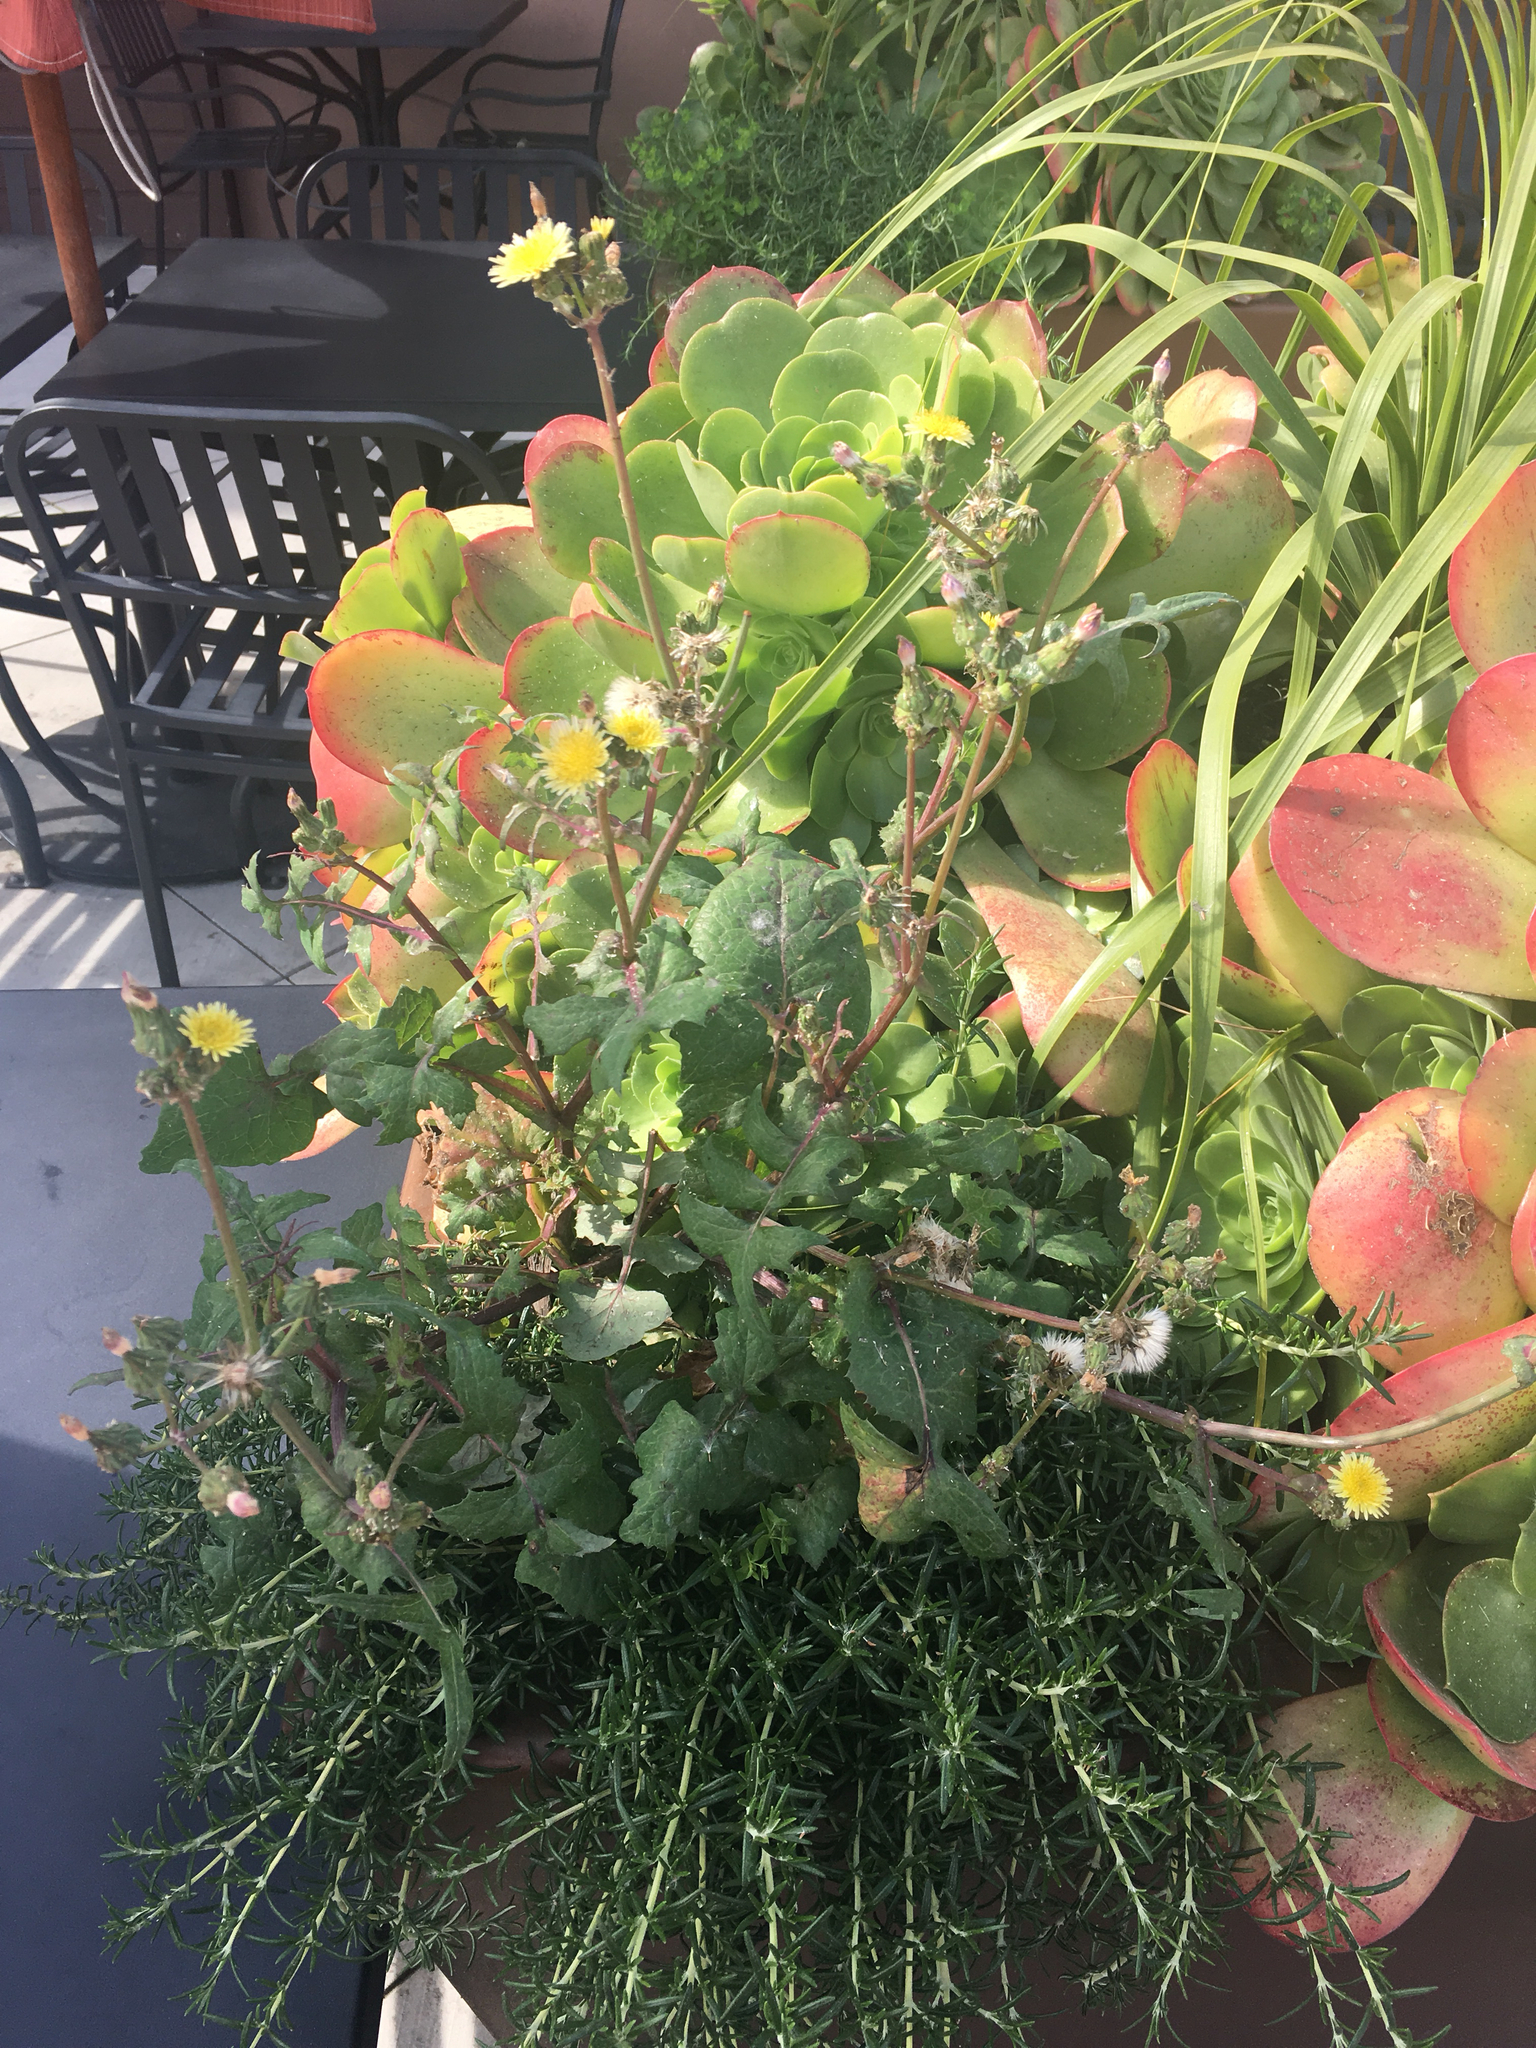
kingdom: Plantae
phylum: Tracheophyta
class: Magnoliopsida
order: Asterales
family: Asteraceae
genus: Sonchus
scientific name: Sonchus oleraceus
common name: Common sowthistle
